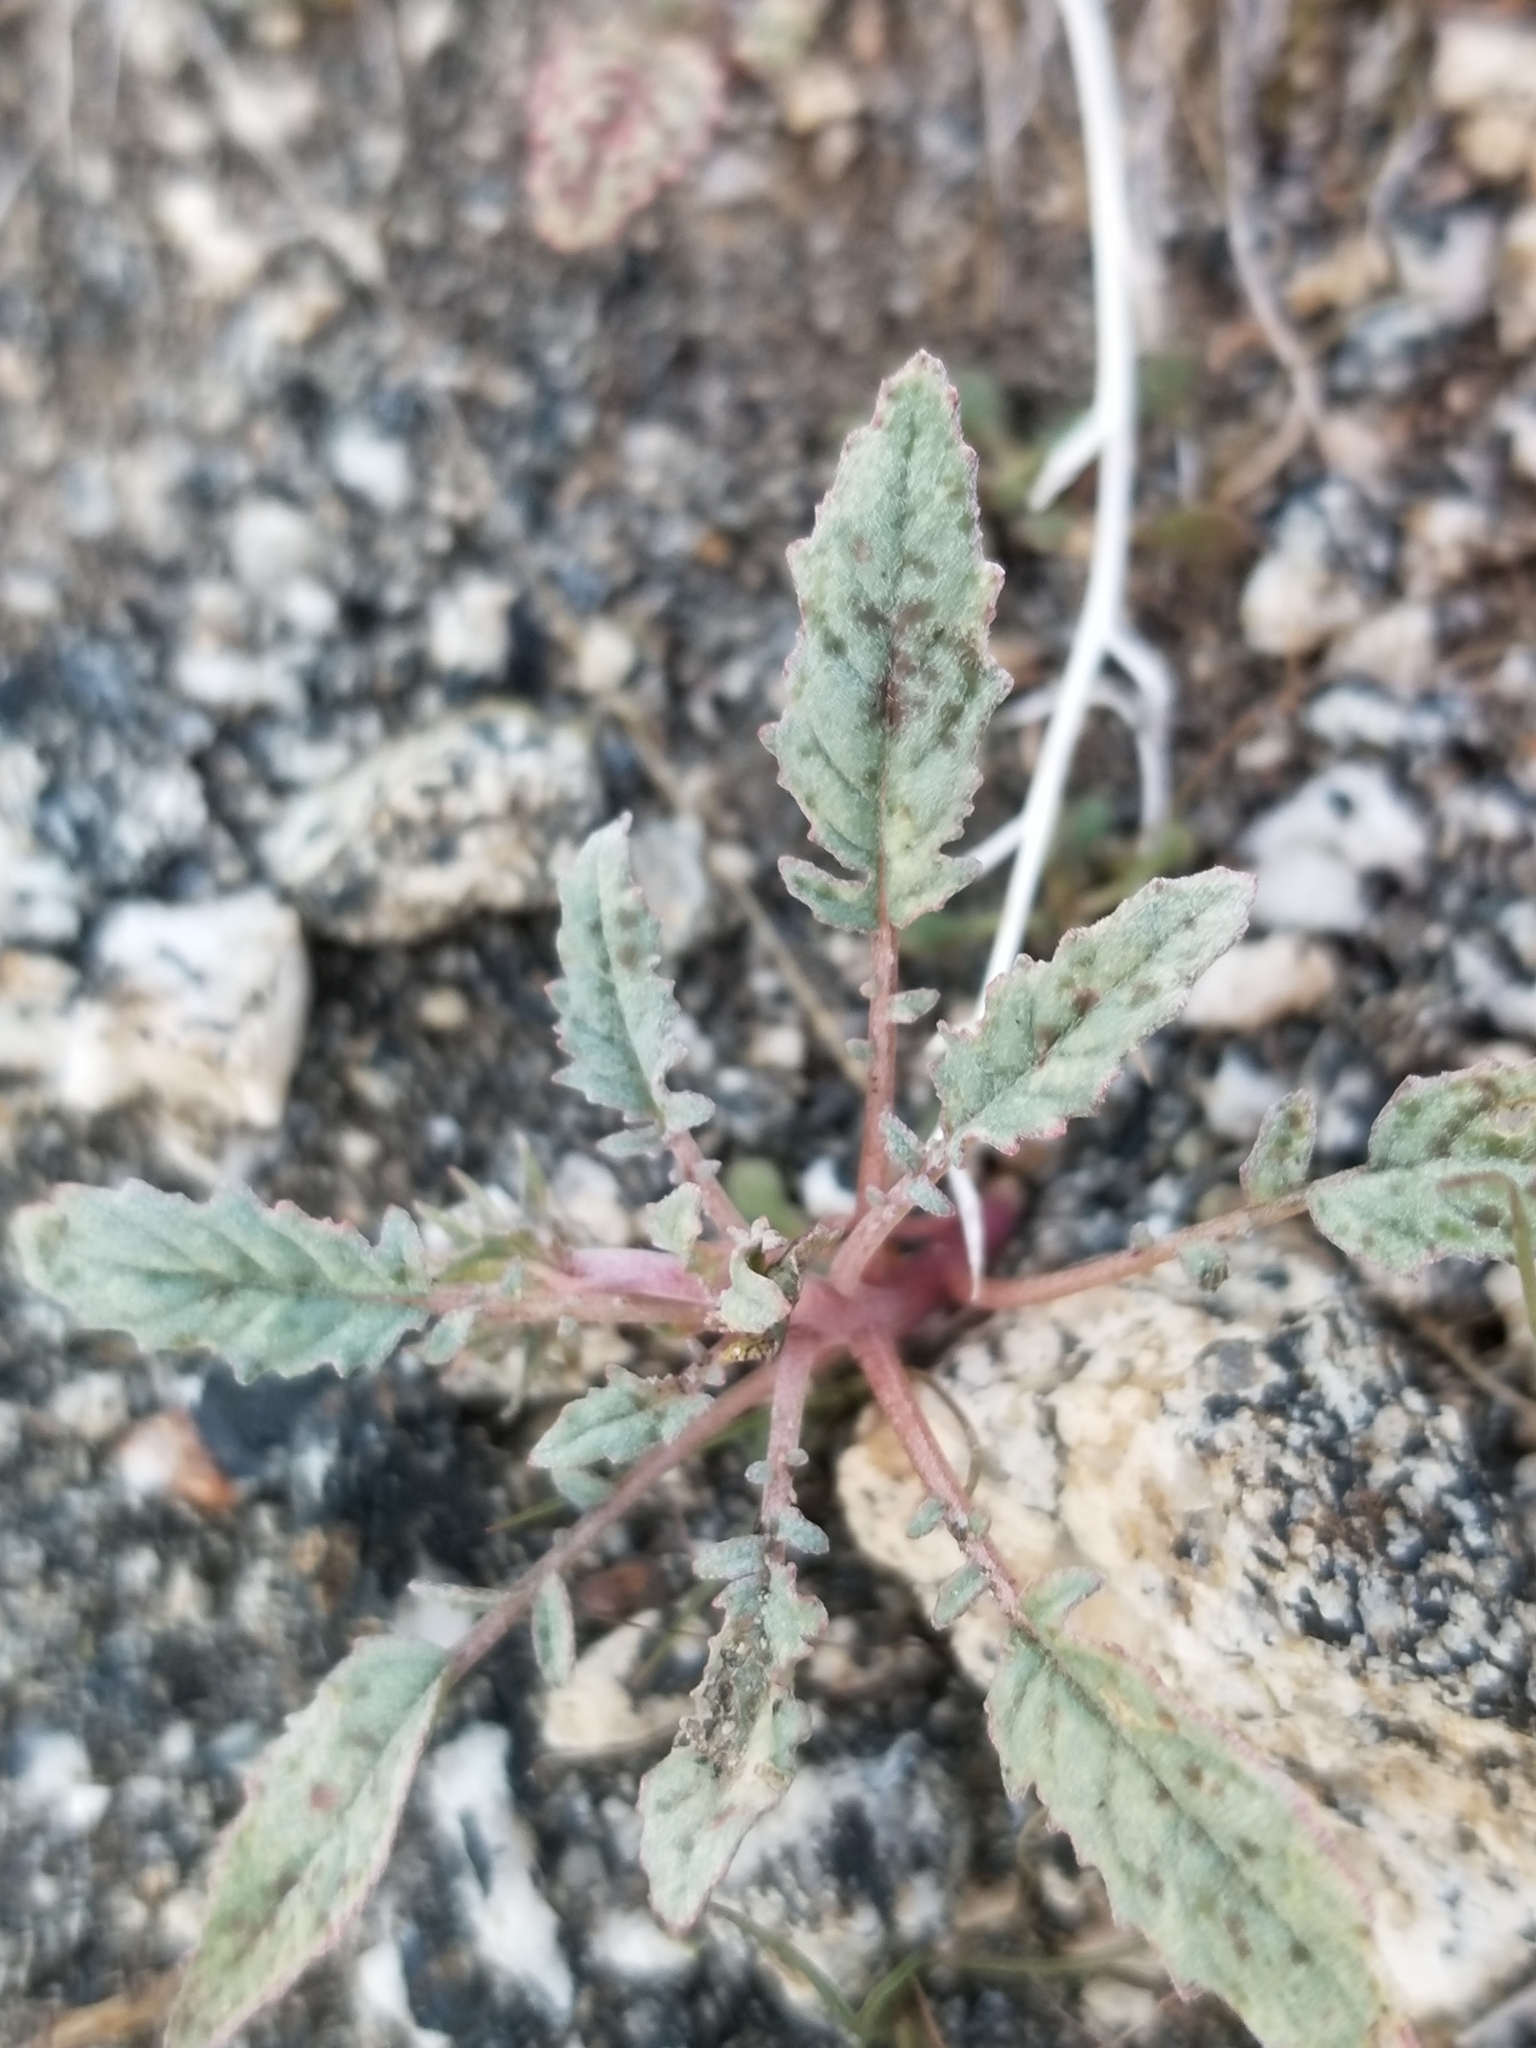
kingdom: Plantae
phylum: Tracheophyta
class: Magnoliopsida
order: Myrtales
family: Onagraceae
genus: Chylismia
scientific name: Chylismia claviformis
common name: Browneyes
